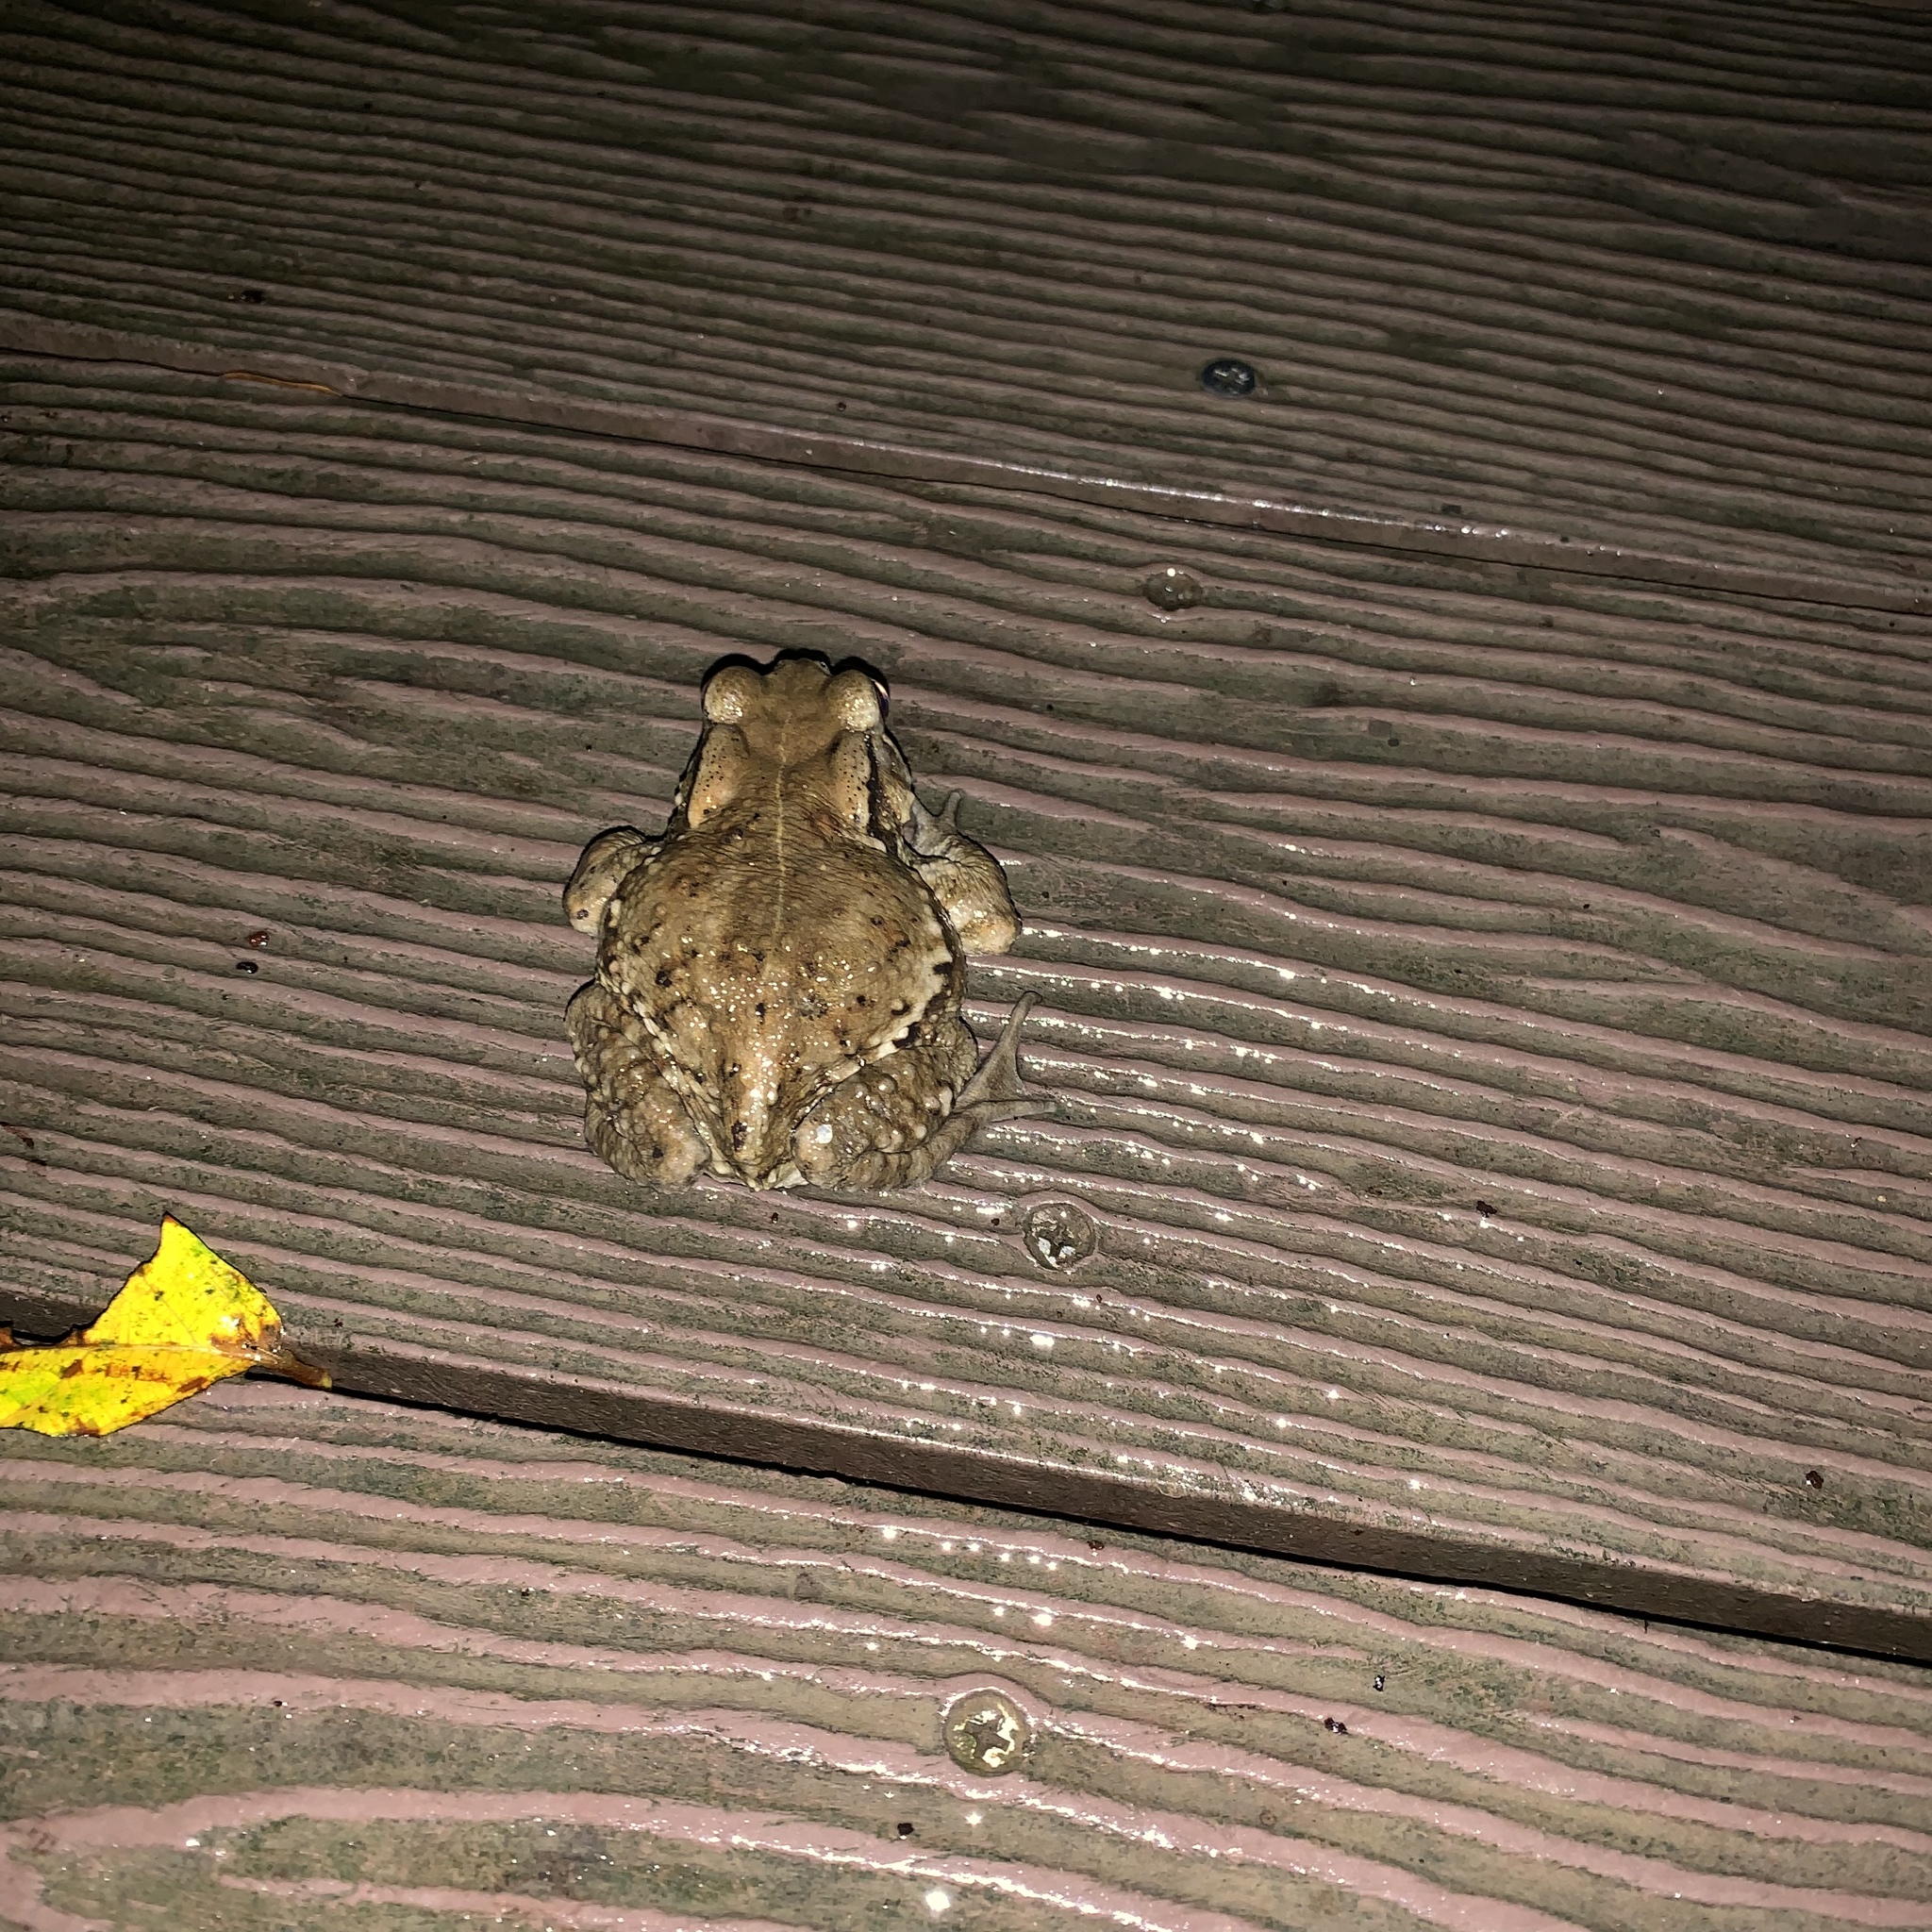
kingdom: Animalia
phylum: Chordata
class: Amphibia
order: Anura
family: Bufonidae
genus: Bufo
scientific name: Bufo bankorensis
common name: Bankor toad
